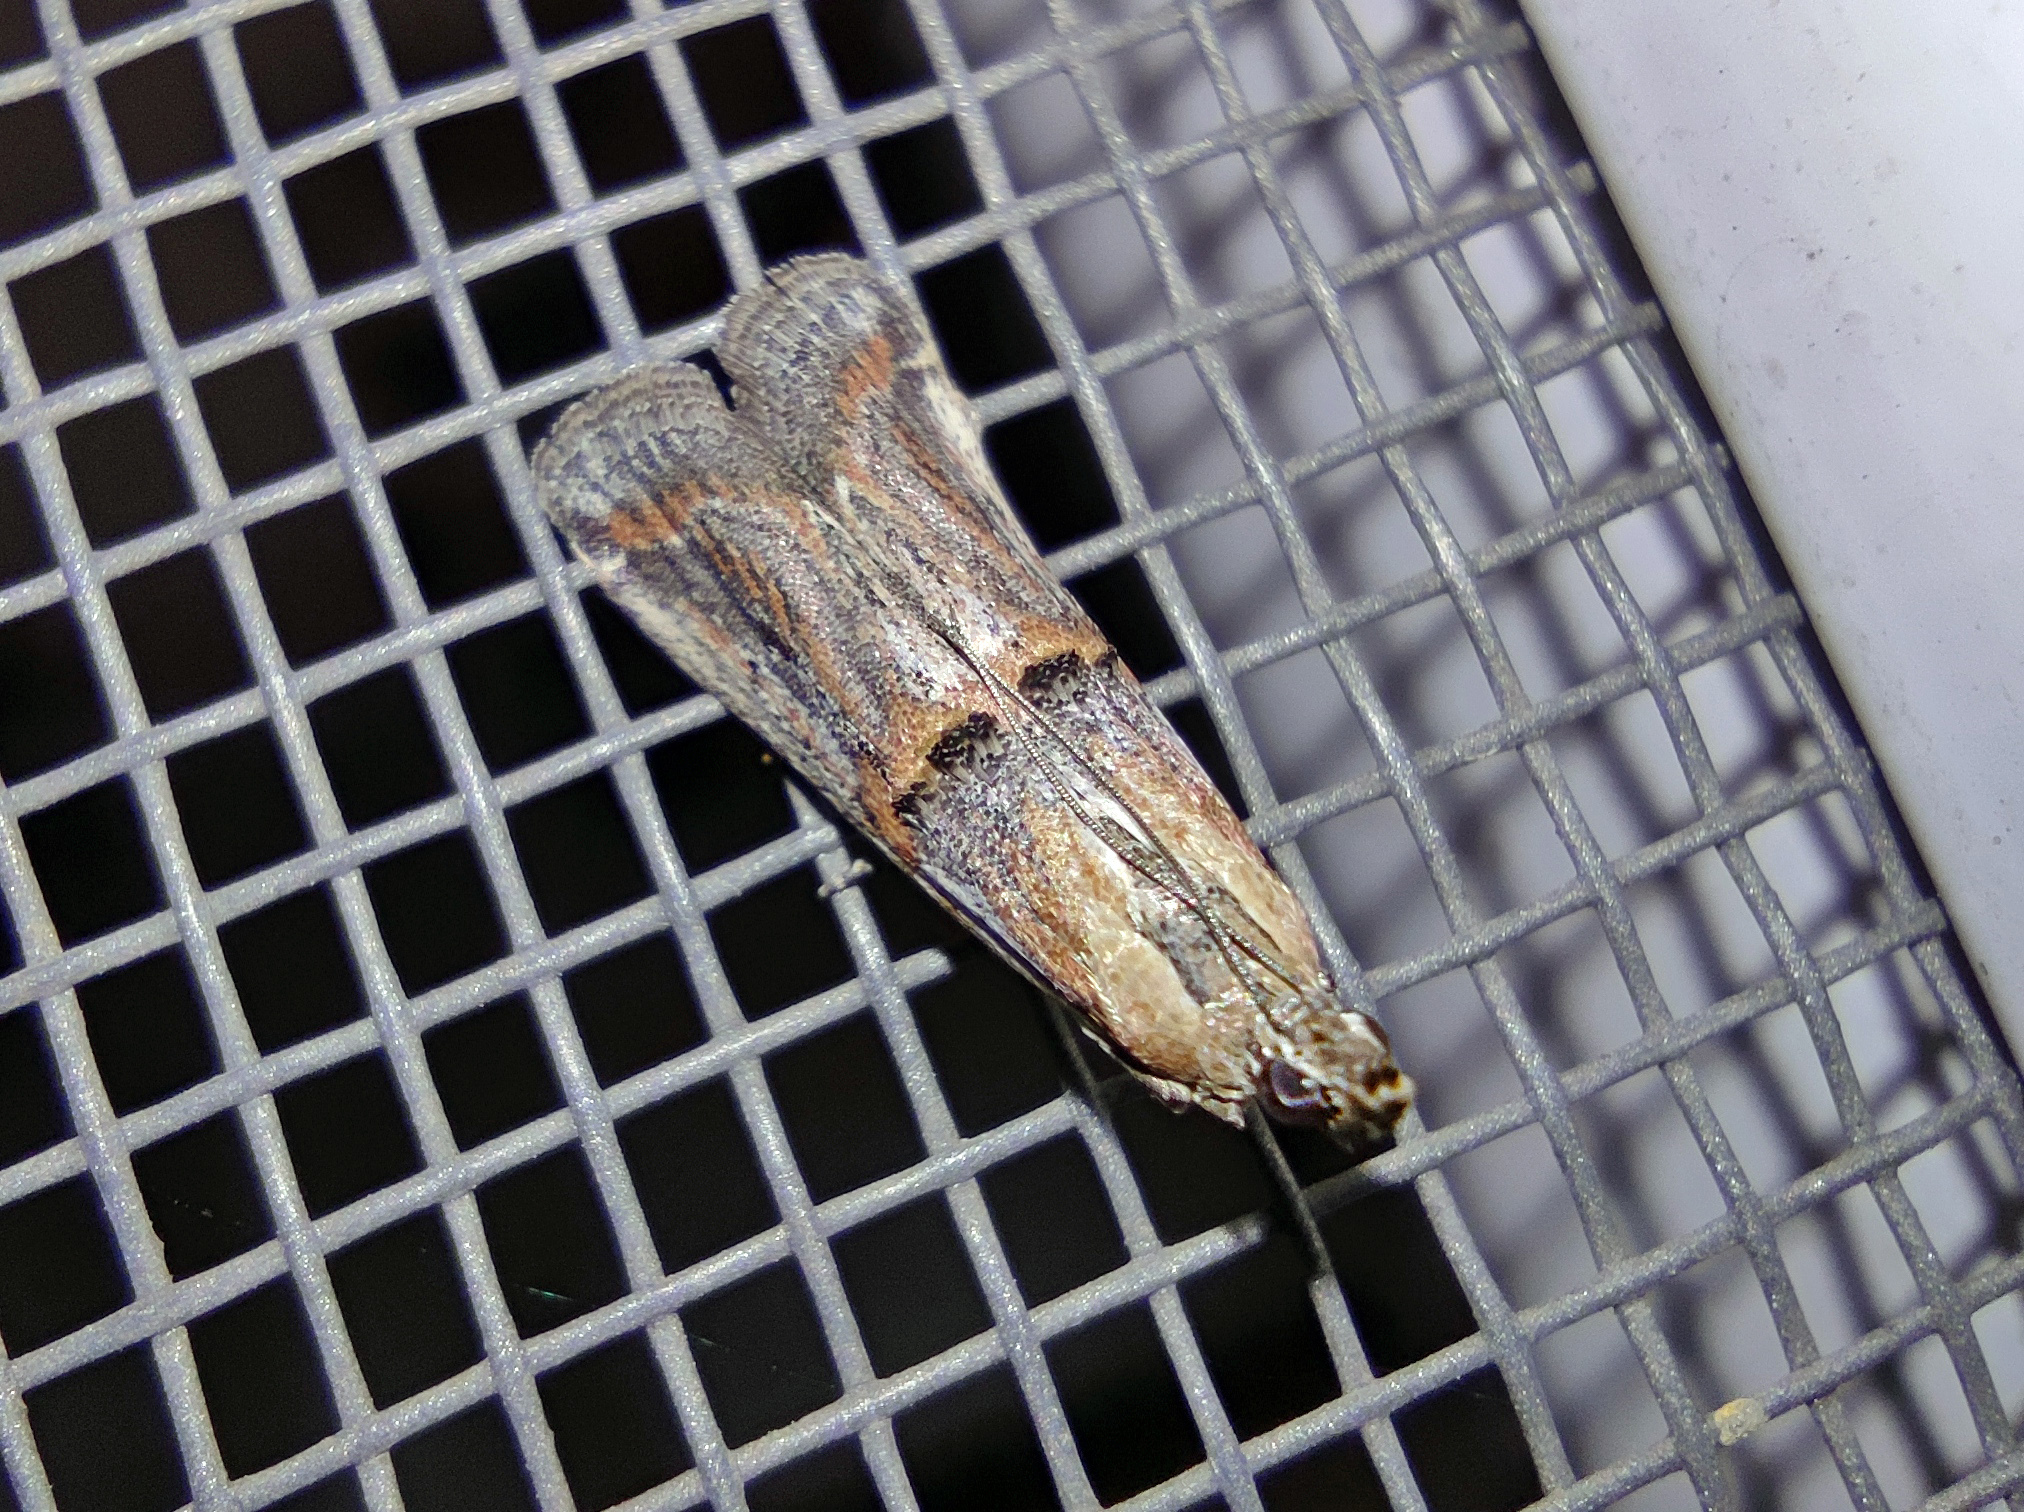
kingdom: Animalia
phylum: Arthropoda
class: Insecta
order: Lepidoptera
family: Pyralidae
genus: Psorosa
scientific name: Psorosa strictella
